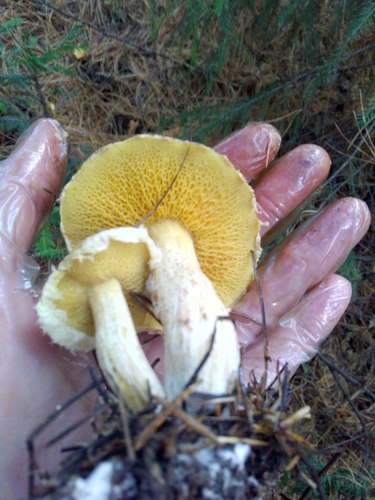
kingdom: Fungi
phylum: Basidiomycota
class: Agaricomycetes
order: Boletales
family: Suillaceae
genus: Suillus
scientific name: Suillus
